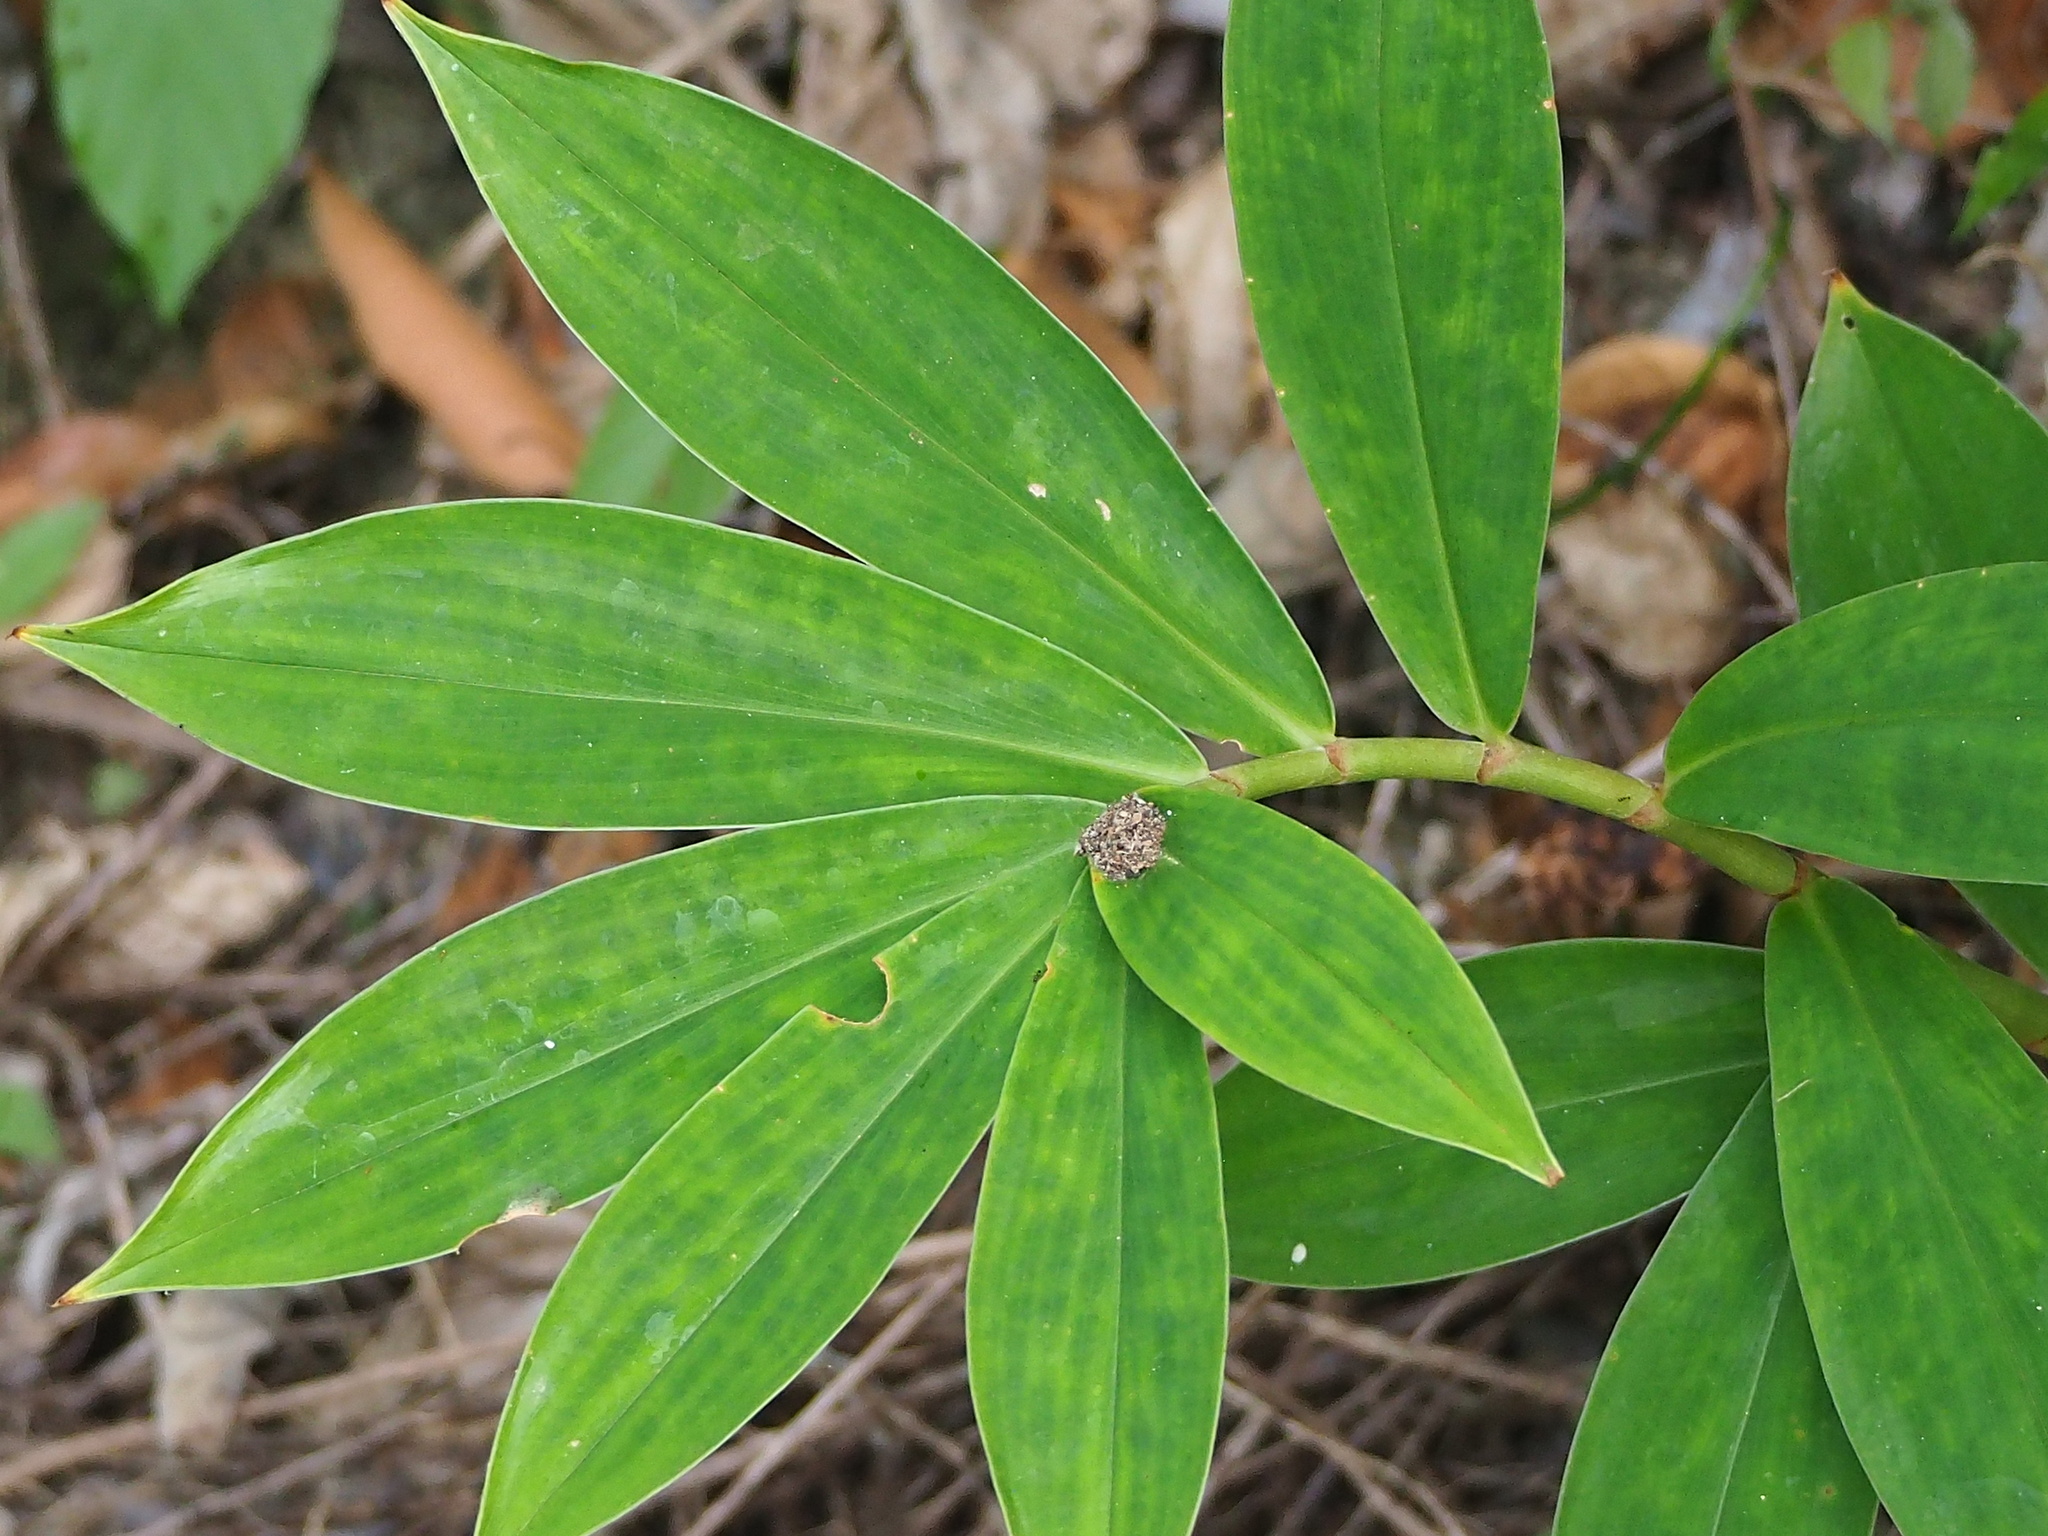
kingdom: Plantae
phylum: Tracheophyta
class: Liliopsida
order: Zingiberales
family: Costaceae
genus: Hellenia
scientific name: Hellenia speciosa
